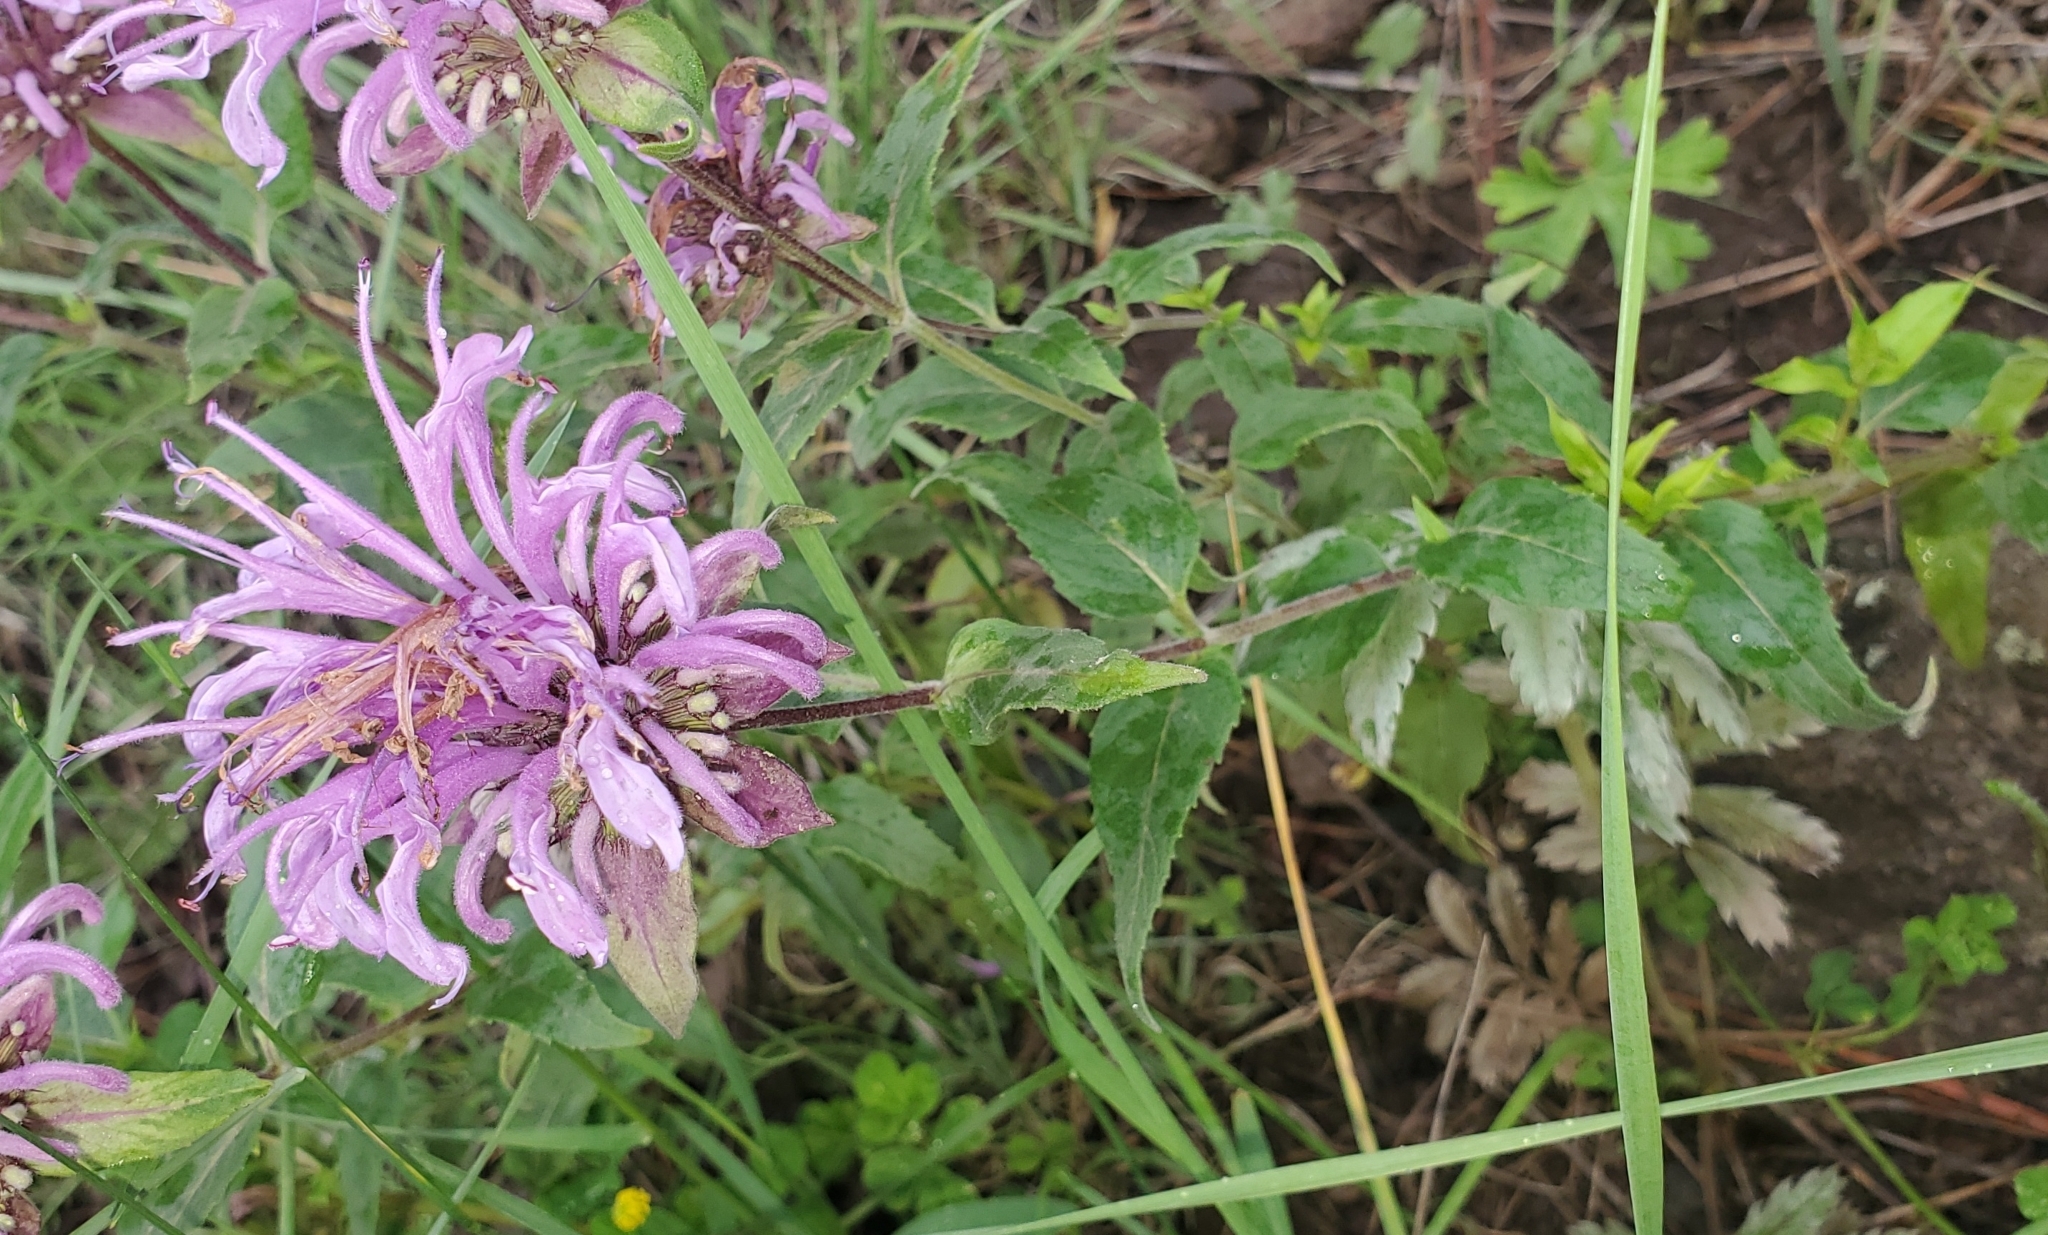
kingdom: Plantae
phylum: Tracheophyta
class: Magnoliopsida
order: Lamiales
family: Lamiaceae
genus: Monarda
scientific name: Monarda fistulosa
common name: Purple beebalm
